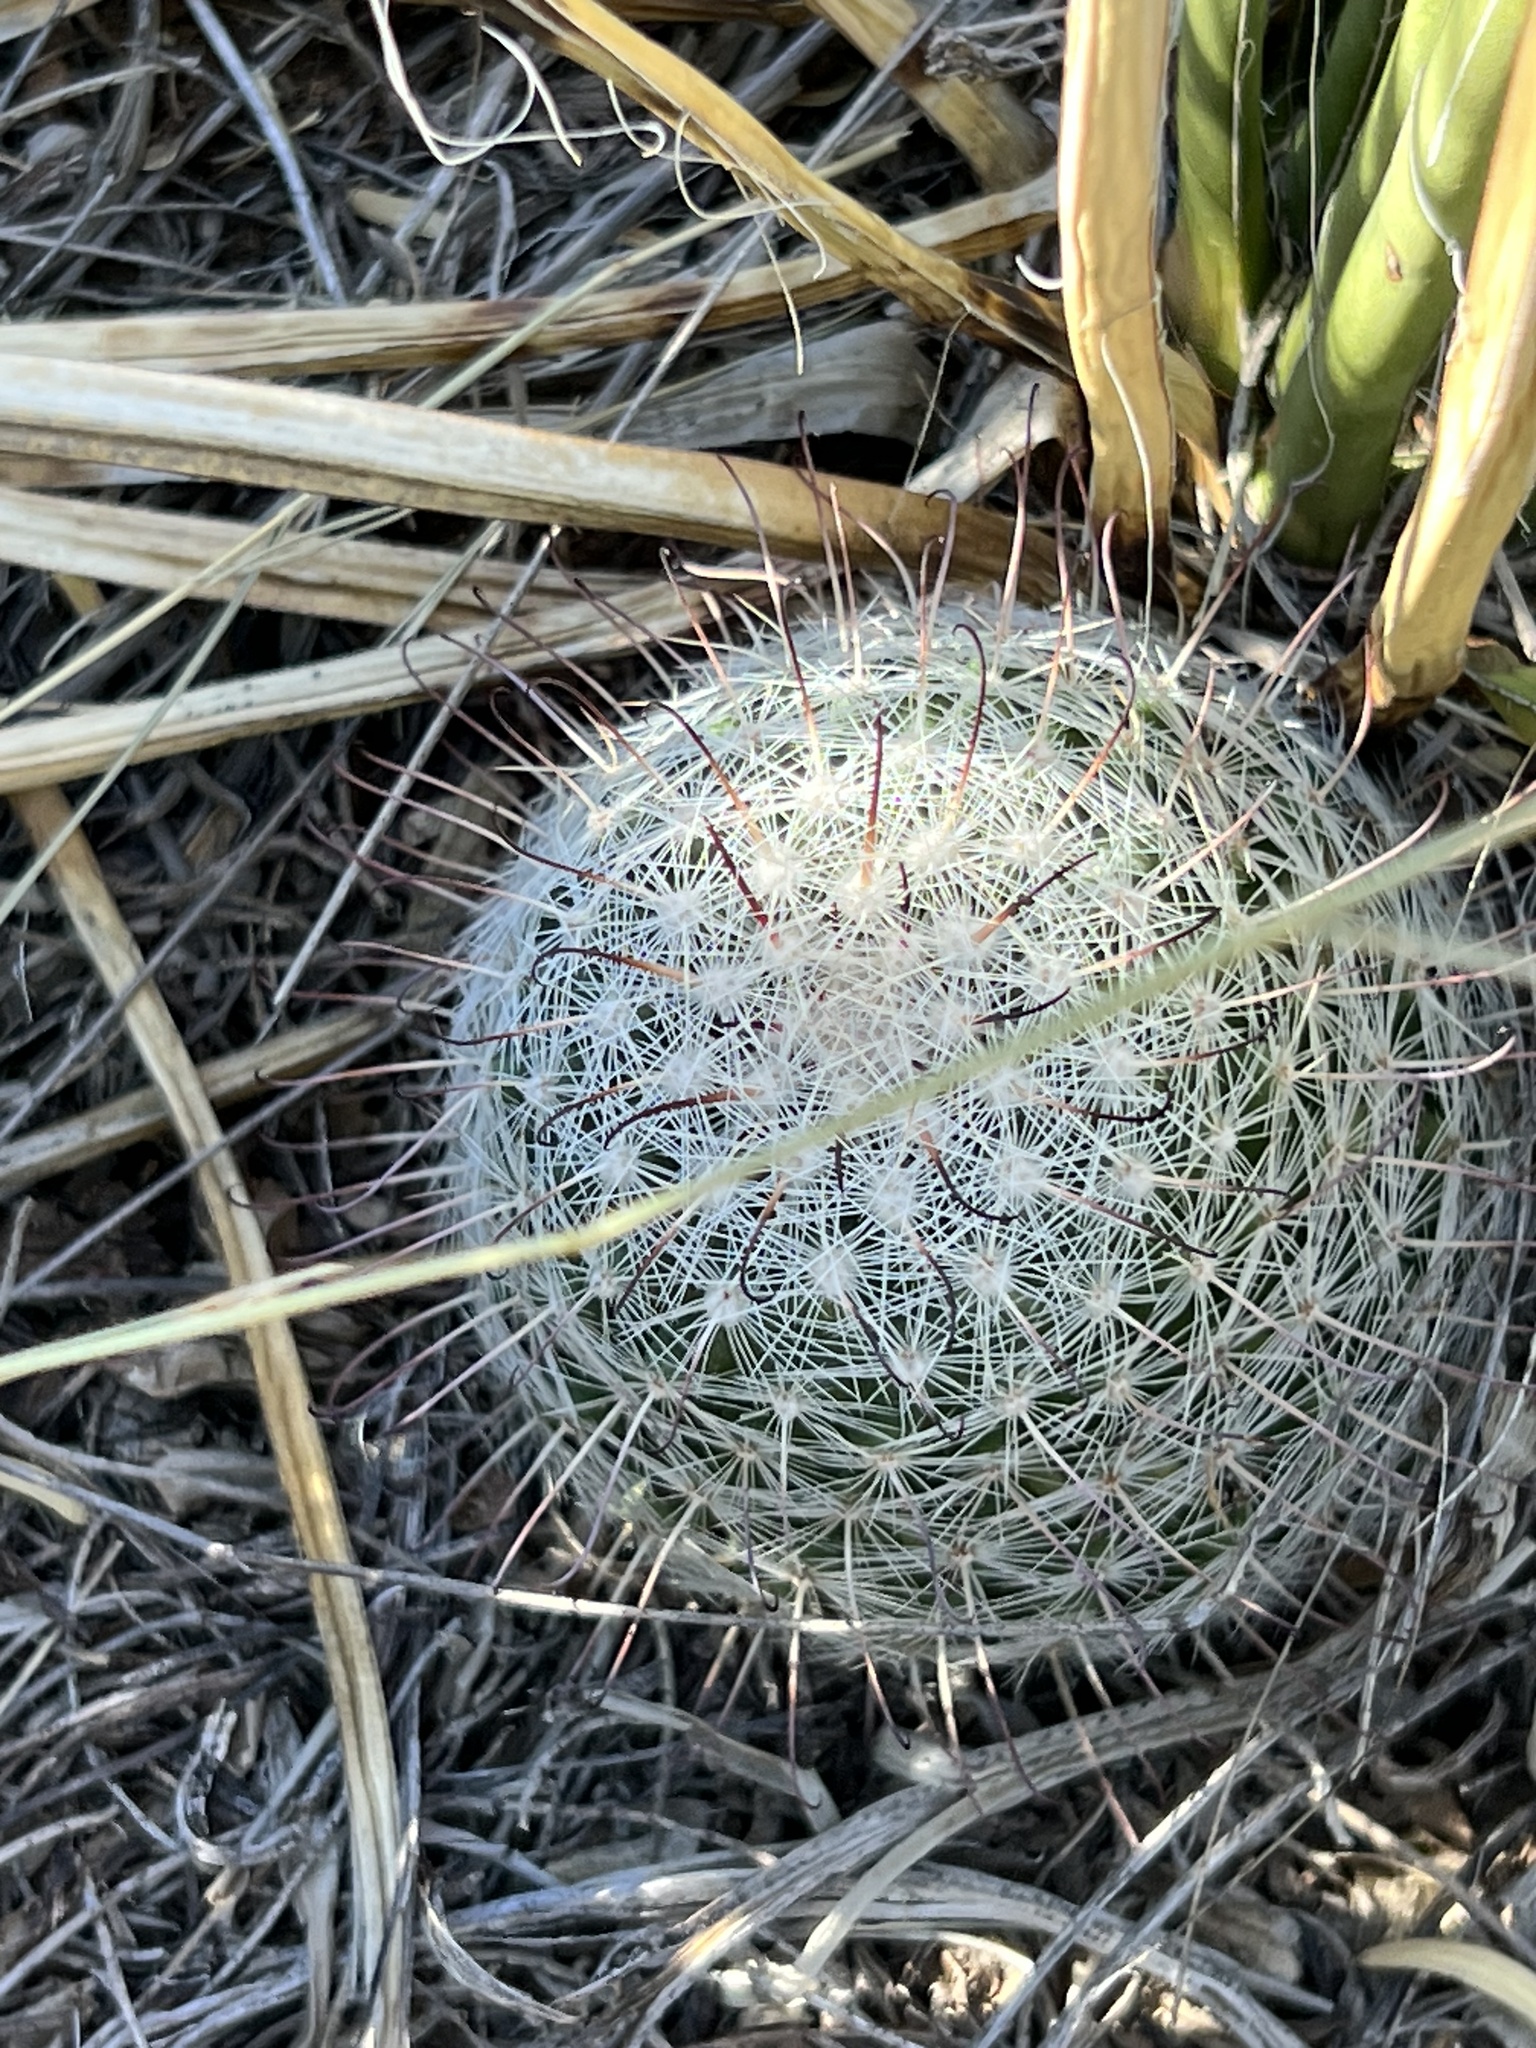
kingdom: Plantae
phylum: Tracheophyta
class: Magnoliopsida
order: Caryophyllales
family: Cactaceae
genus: Cochemiea
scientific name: Cochemiea grahamii
